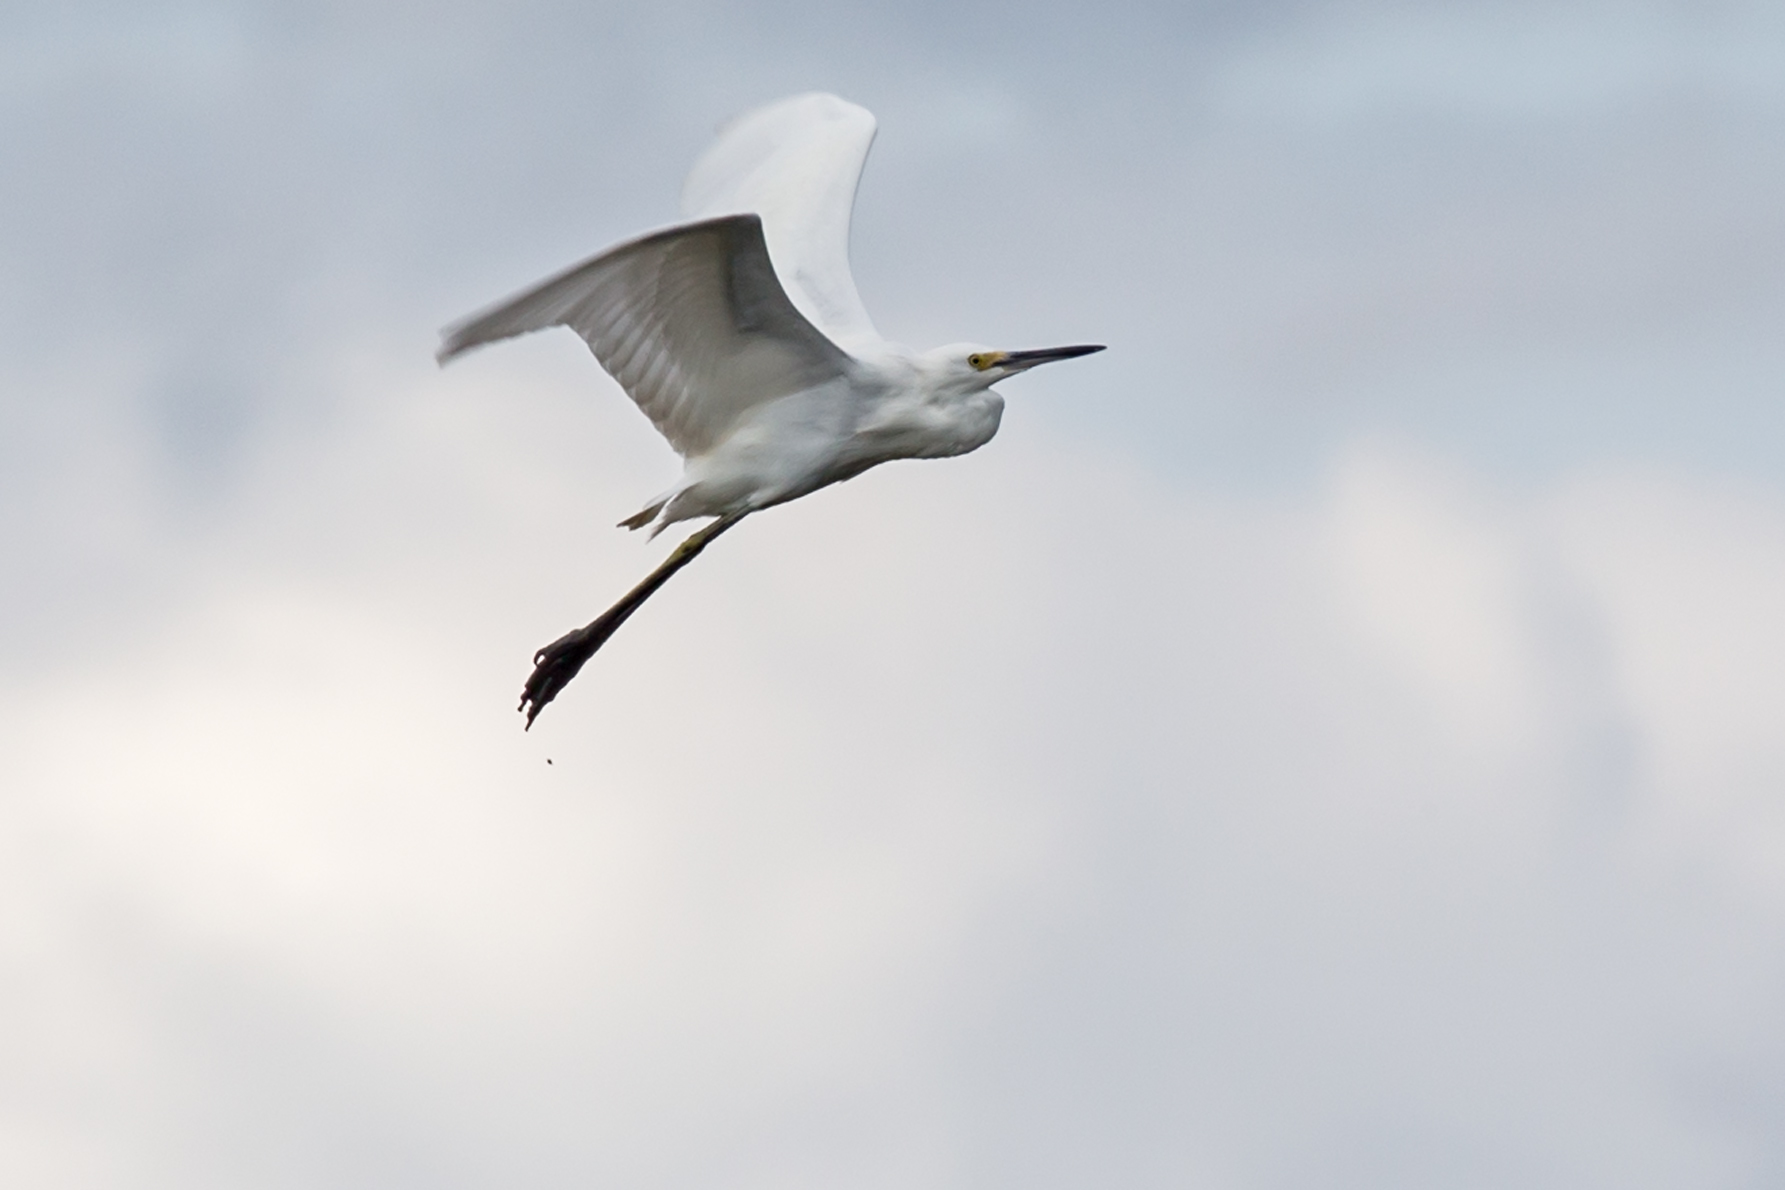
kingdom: Animalia
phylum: Chordata
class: Aves
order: Pelecaniformes
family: Ardeidae
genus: Egretta
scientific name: Egretta thula
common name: Snowy egret
